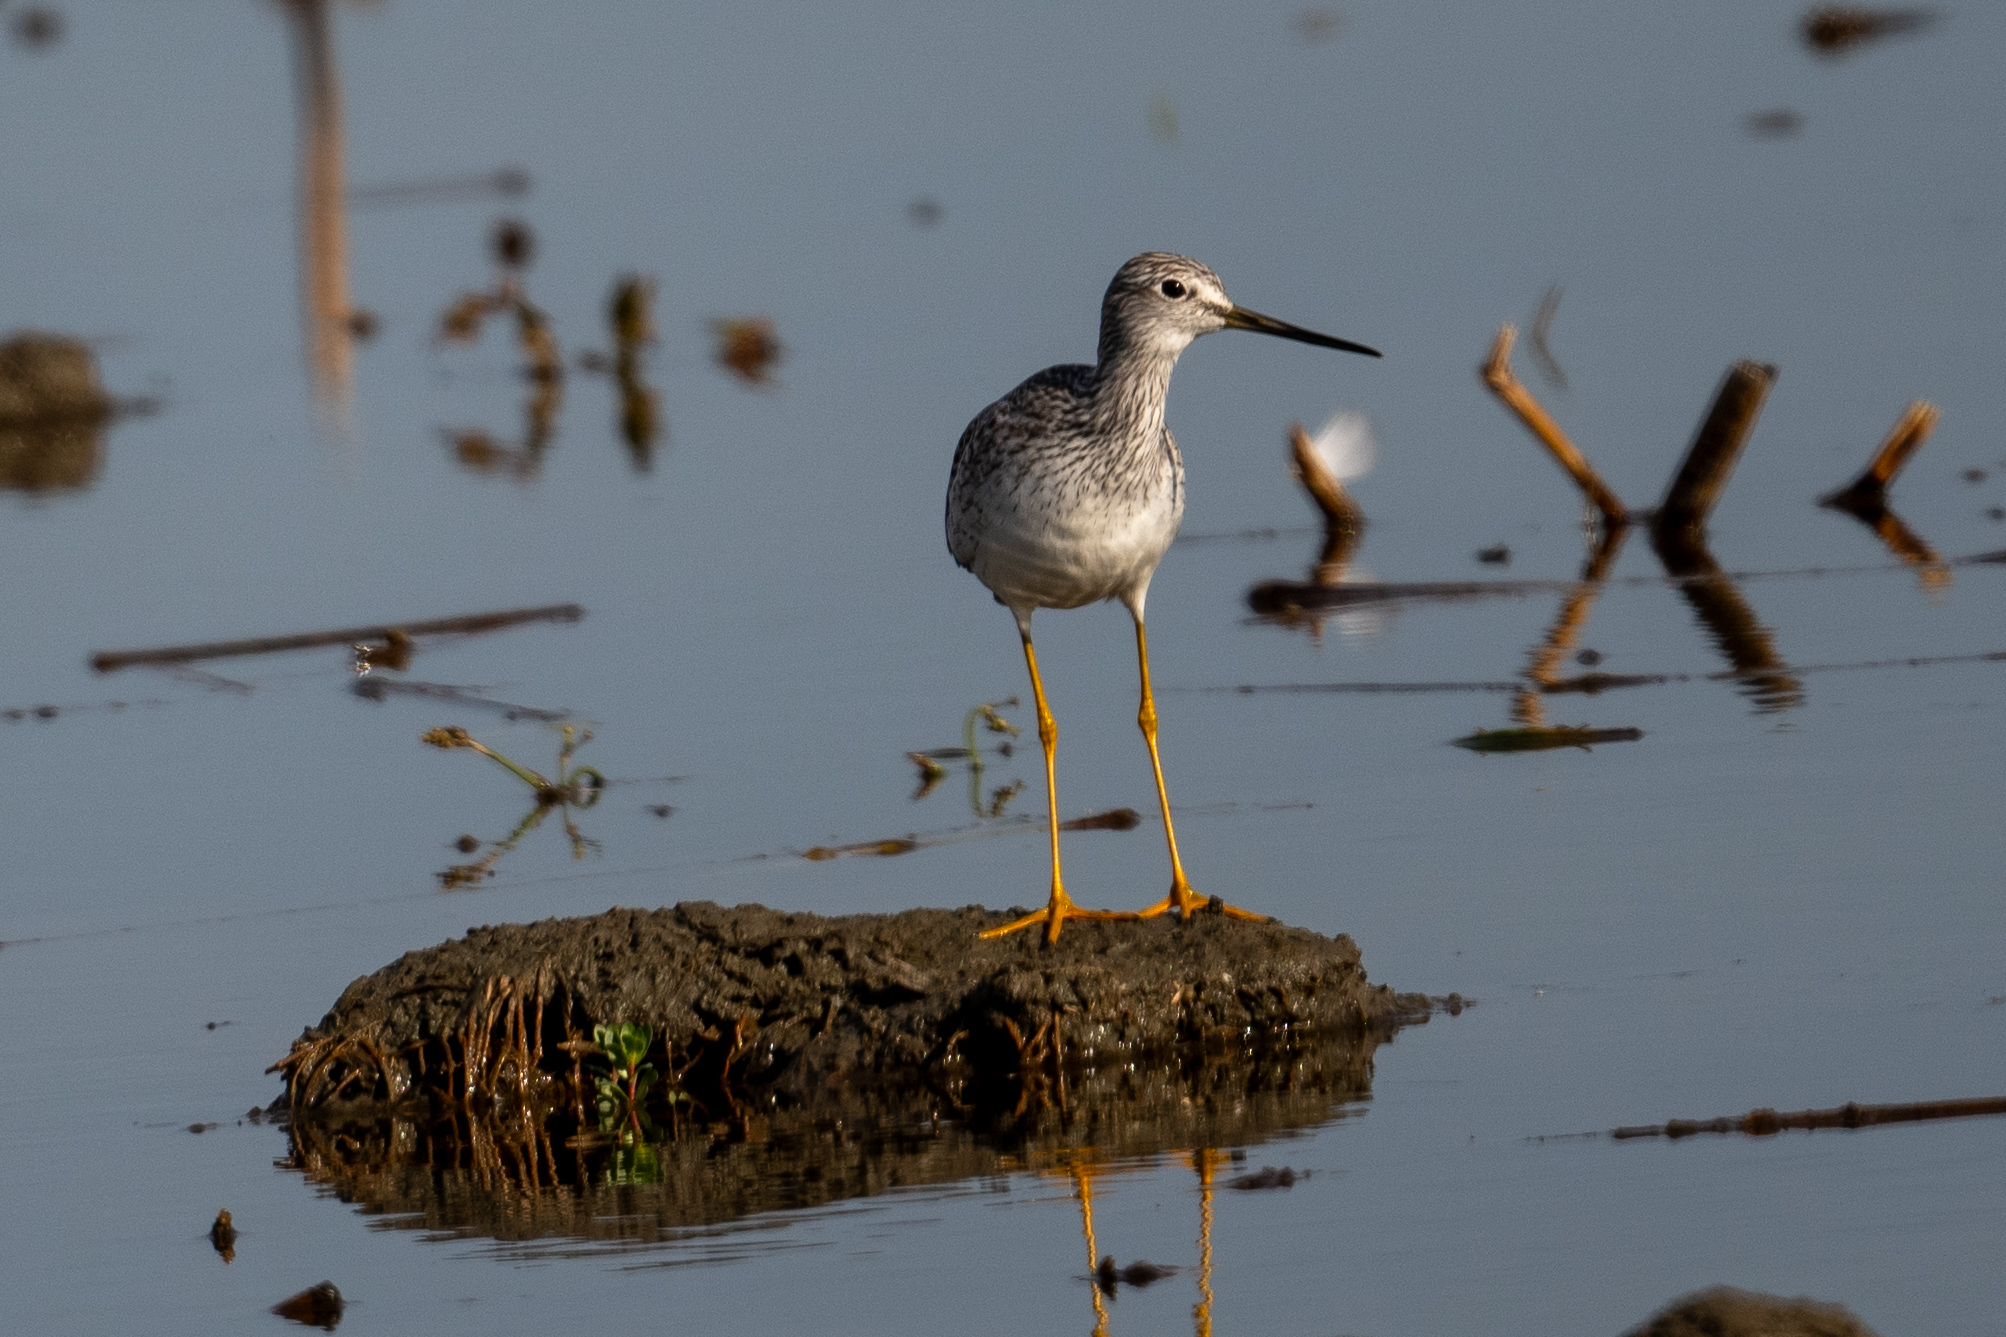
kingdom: Animalia
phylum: Chordata
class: Aves
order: Charadriiformes
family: Scolopacidae
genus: Tringa
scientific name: Tringa melanoleuca
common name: Greater yellowlegs
